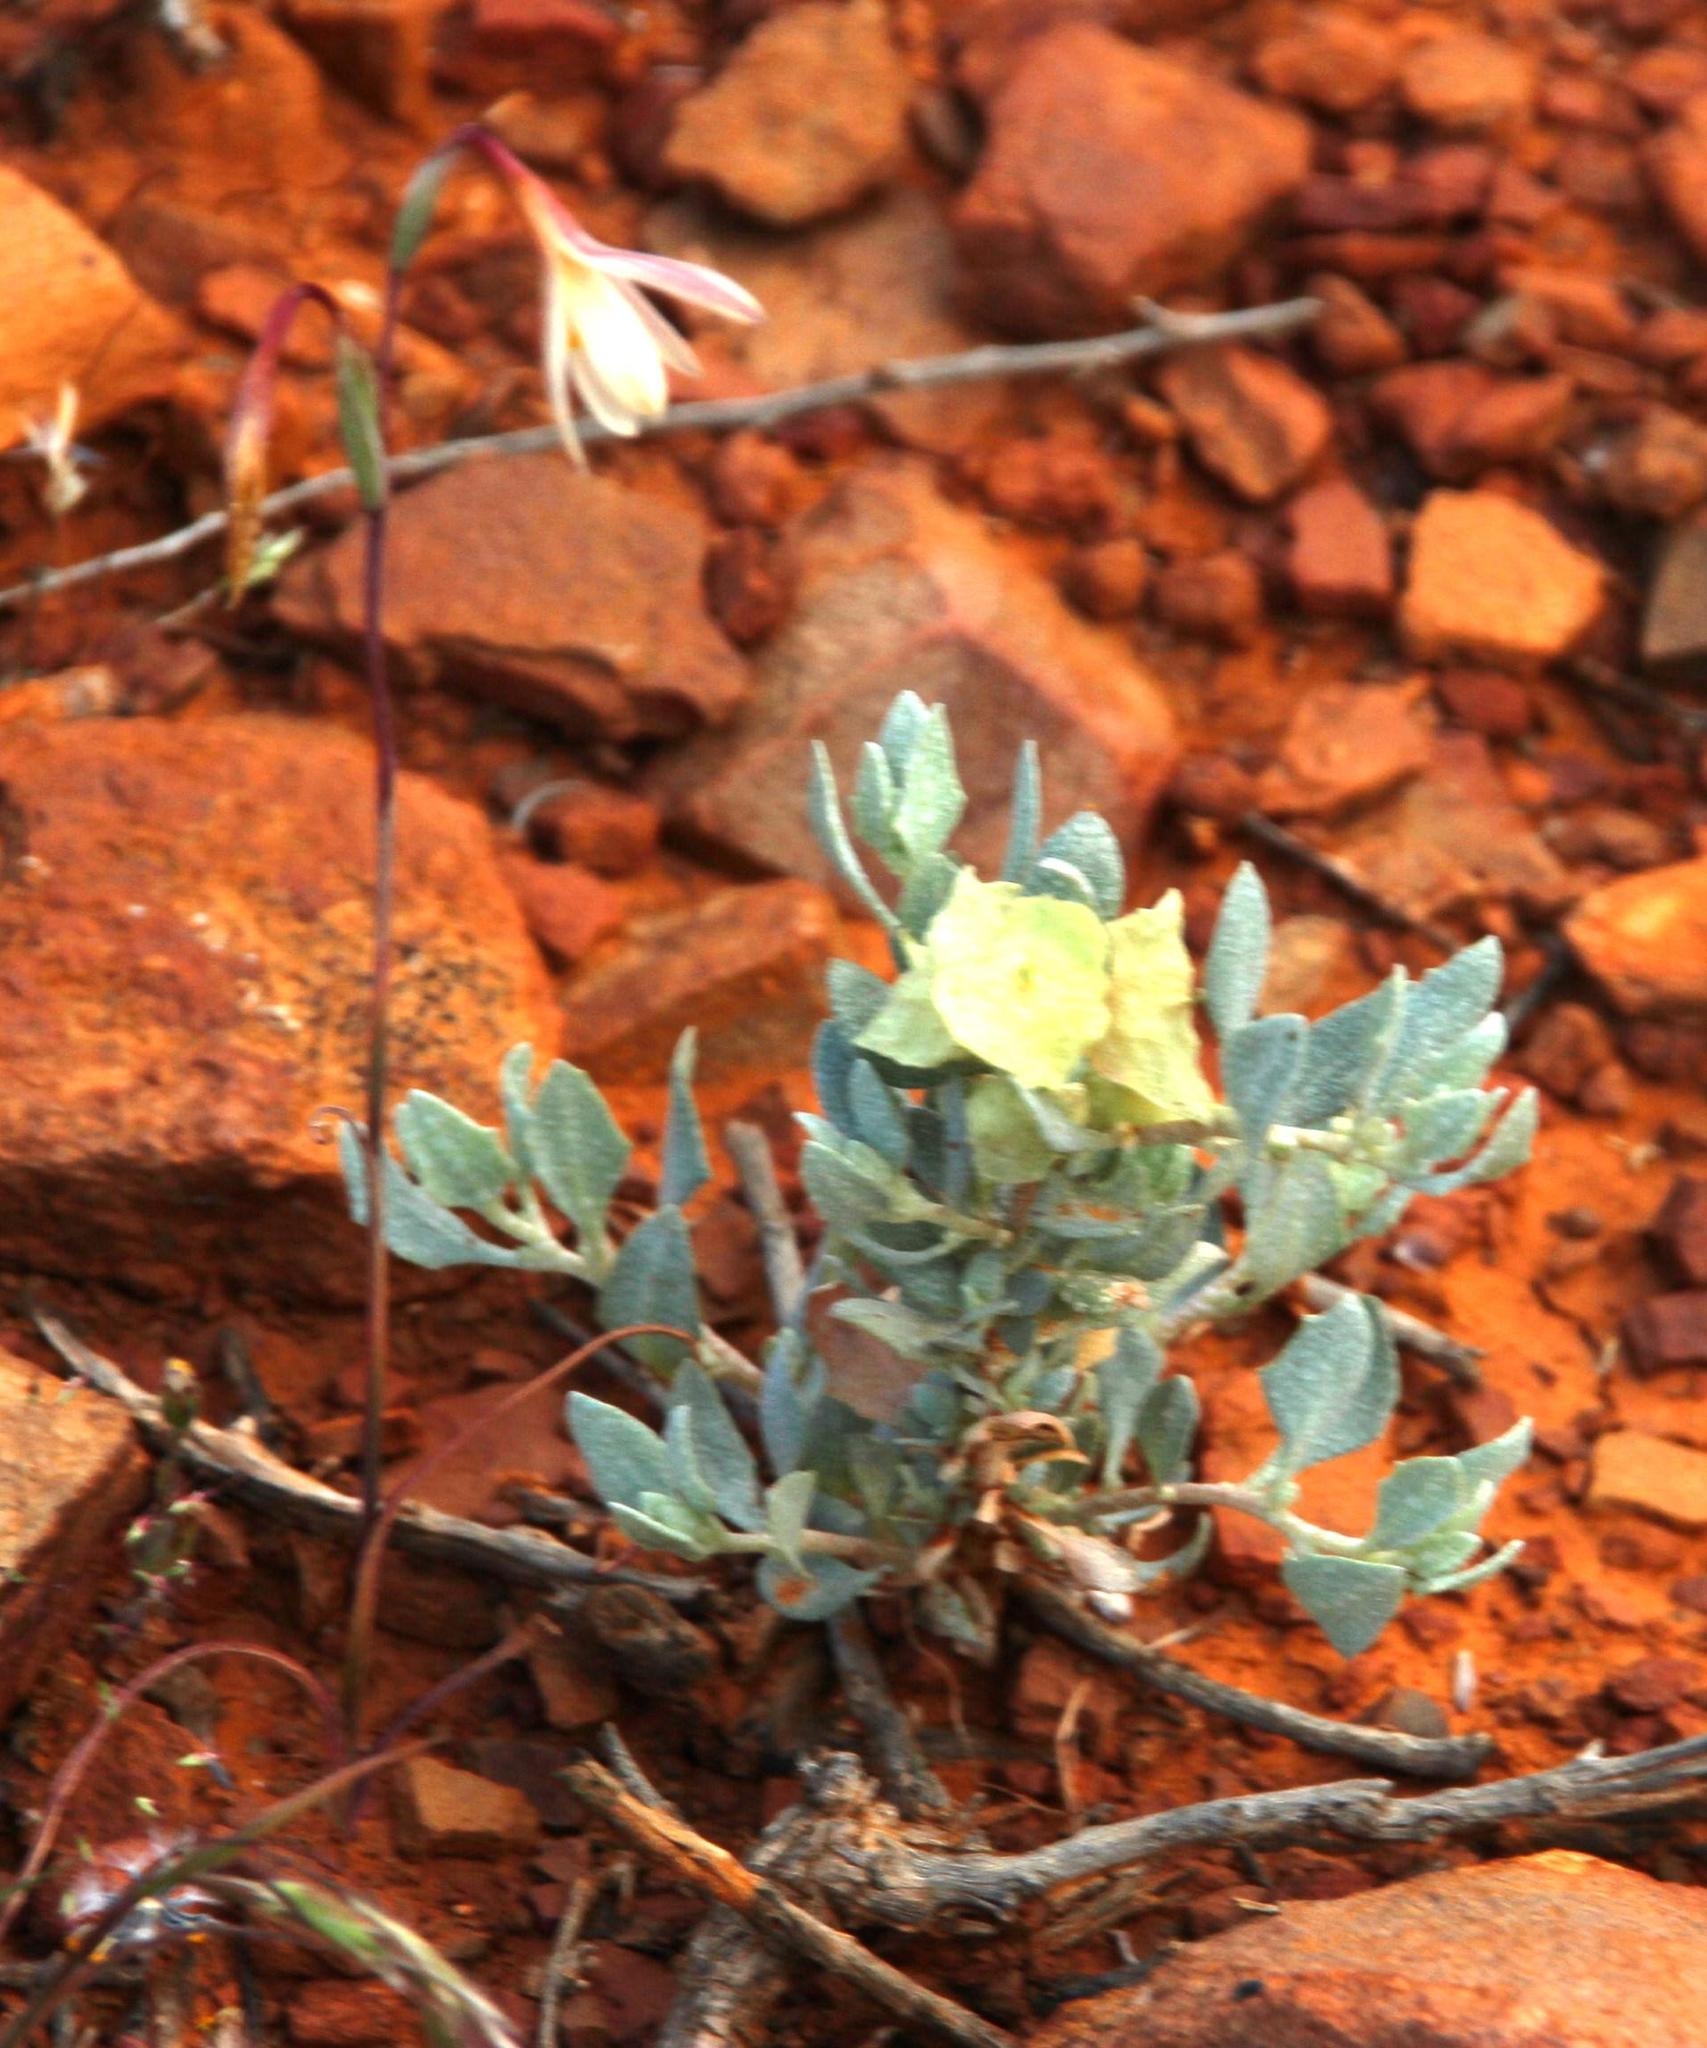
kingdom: Plantae
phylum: Tracheophyta
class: Magnoliopsida
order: Caryophyllales
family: Amaranthaceae
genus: Atriplex
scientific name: Atriplex lindleyi
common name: Lindley's saltbush
